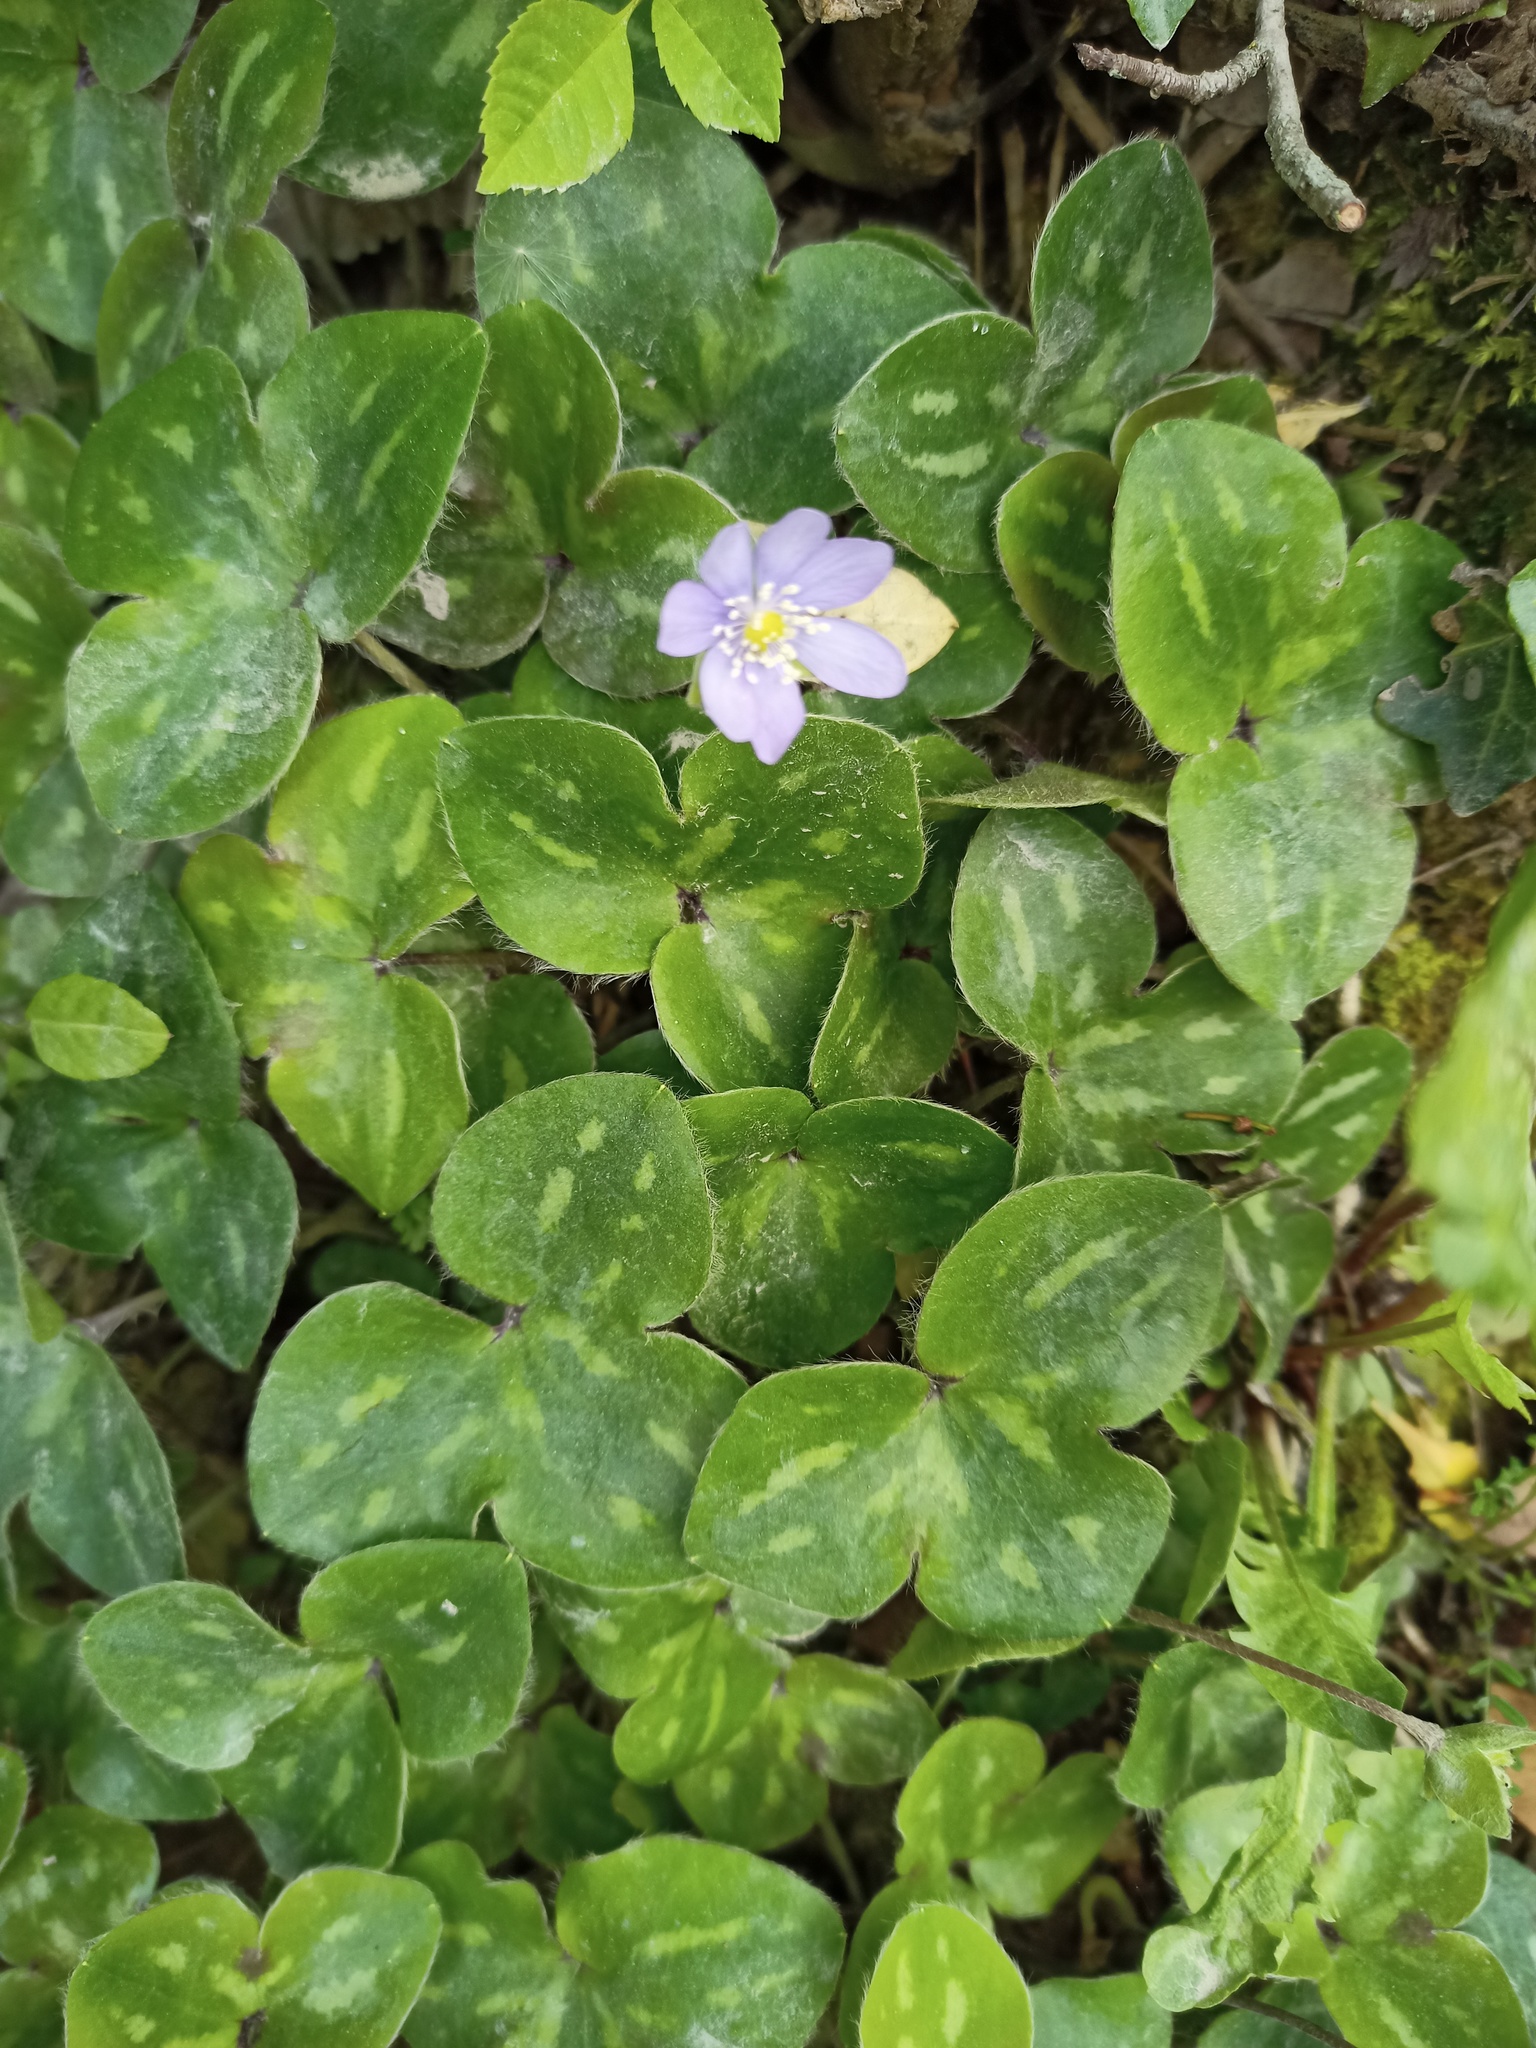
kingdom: Plantae
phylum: Tracheophyta
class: Magnoliopsida
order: Ranunculales
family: Ranunculaceae
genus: Hepatica
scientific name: Hepatica nobilis
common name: Liverleaf
